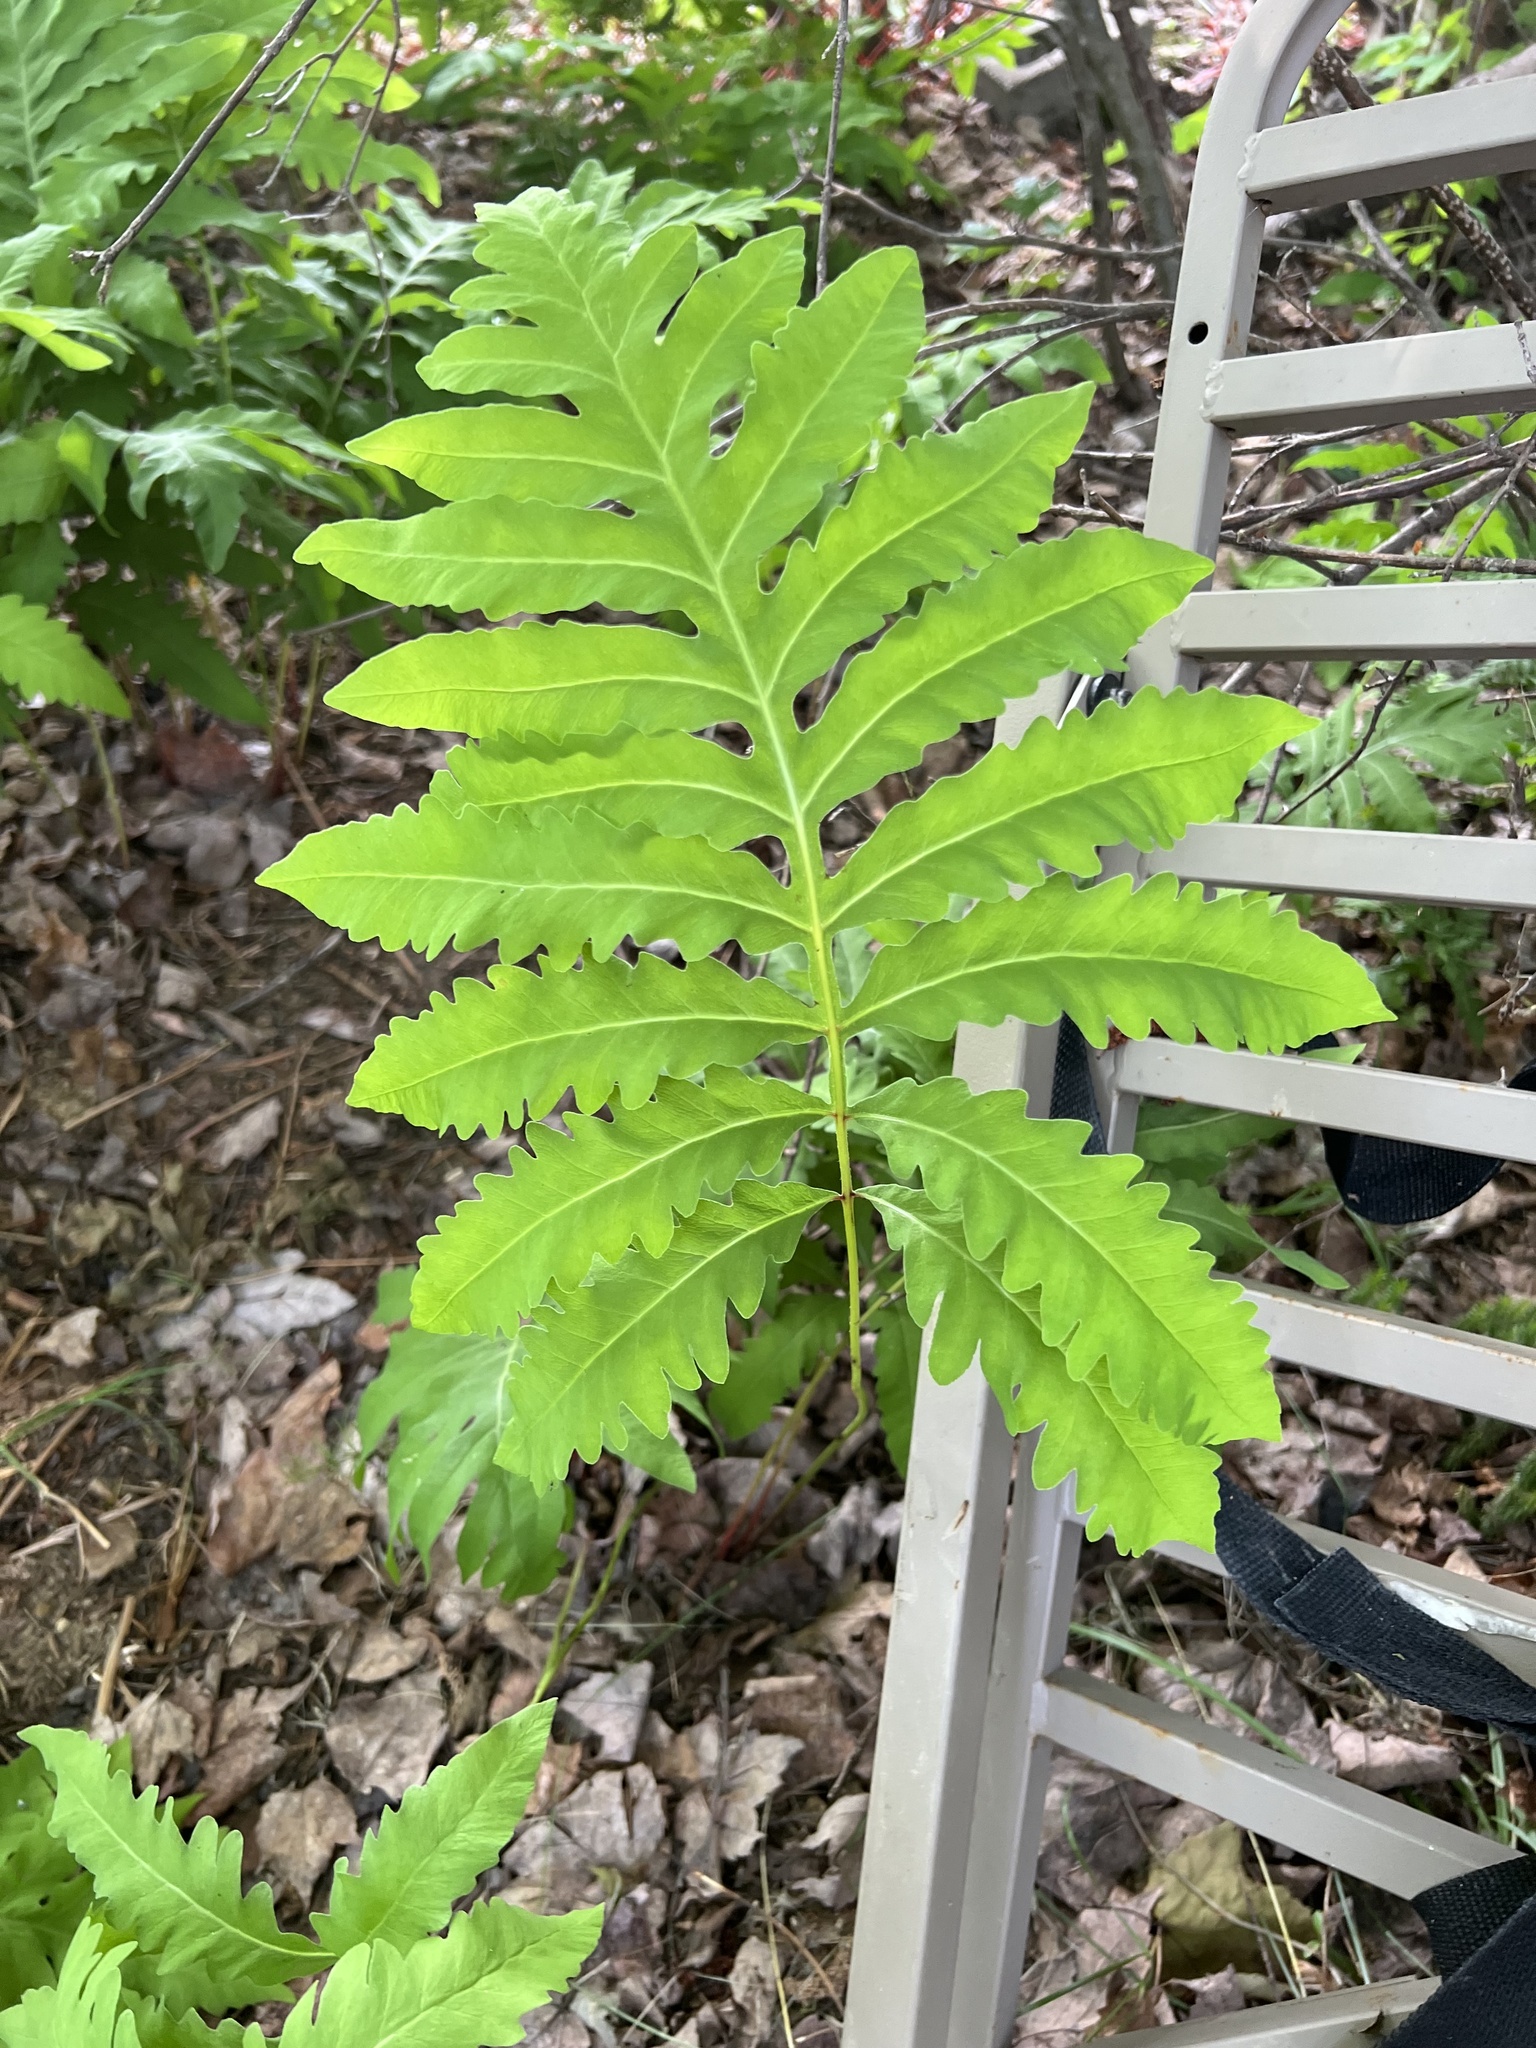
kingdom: Plantae
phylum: Tracheophyta
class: Polypodiopsida
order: Polypodiales
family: Onocleaceae
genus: Onoclea
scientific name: Onoclea sensibilis
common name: Sensitive fern
